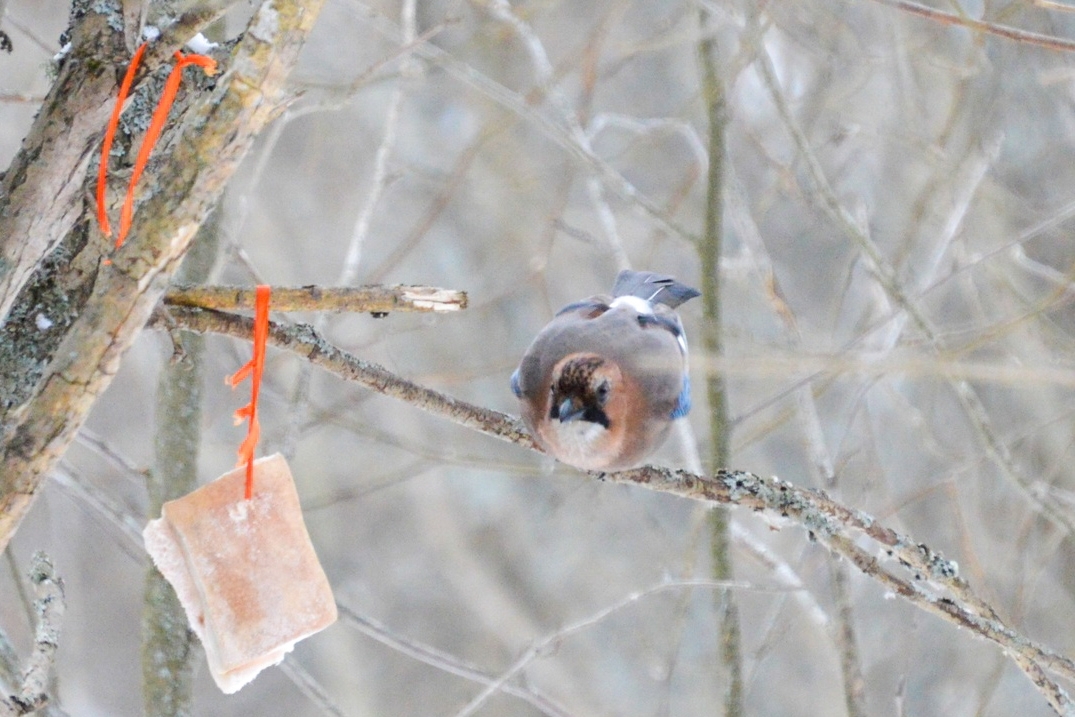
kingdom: Animalia
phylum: Chordata
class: Aves
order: Passeriformes
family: Corvidae
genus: Garrulus
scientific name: Garrulus glandarius
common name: Eurasian jay
